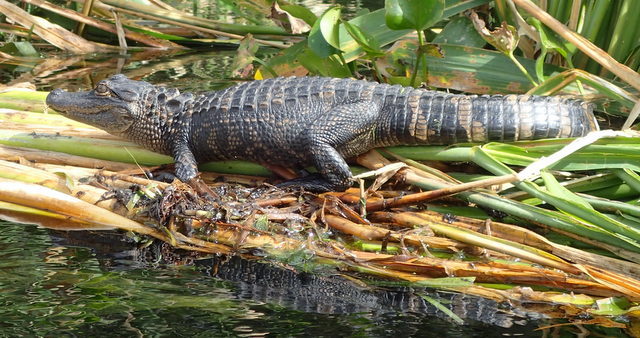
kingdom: Animalia
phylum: Chordata
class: Crocodylia
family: Alligatoridae
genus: Alligator
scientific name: Alligator mississippiensis
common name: American alligator
